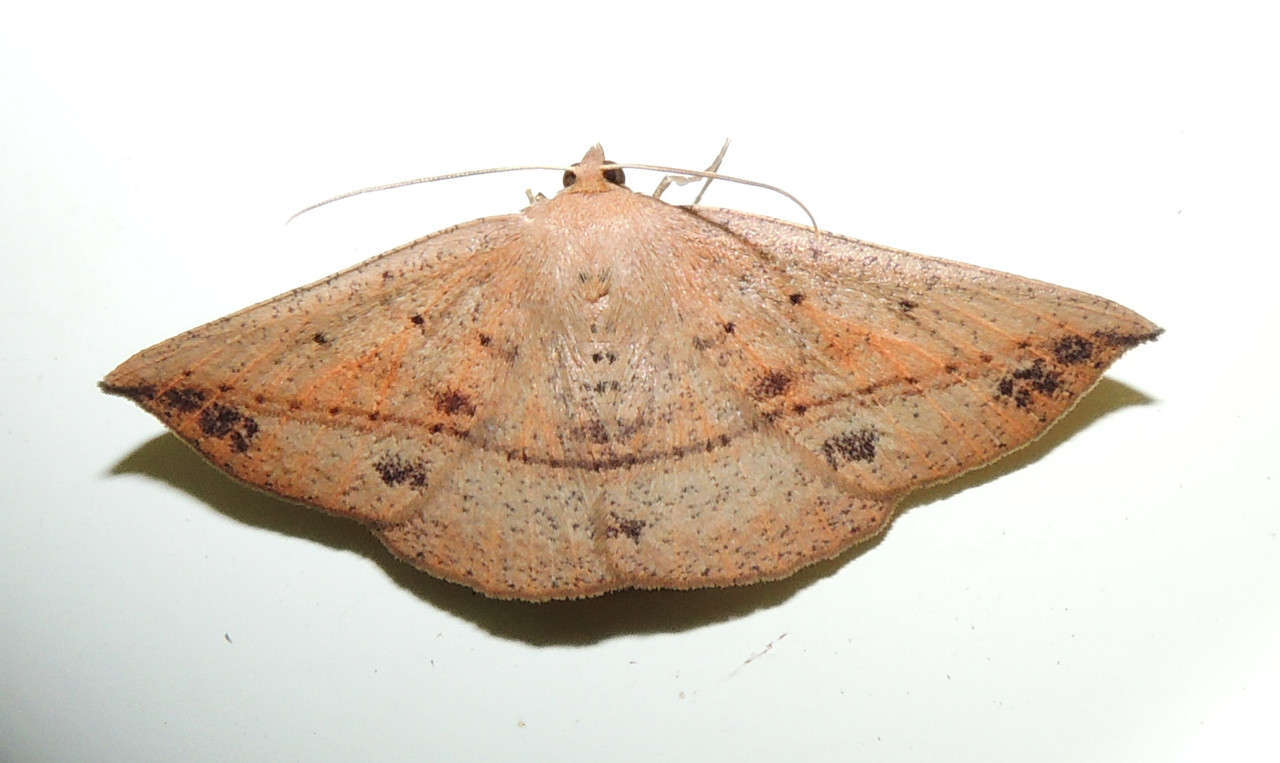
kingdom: Animalia
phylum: Arthropoda
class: Insecta
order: Lepidoptera
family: Geometridae
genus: Idiodes
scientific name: Idiodes apicata
